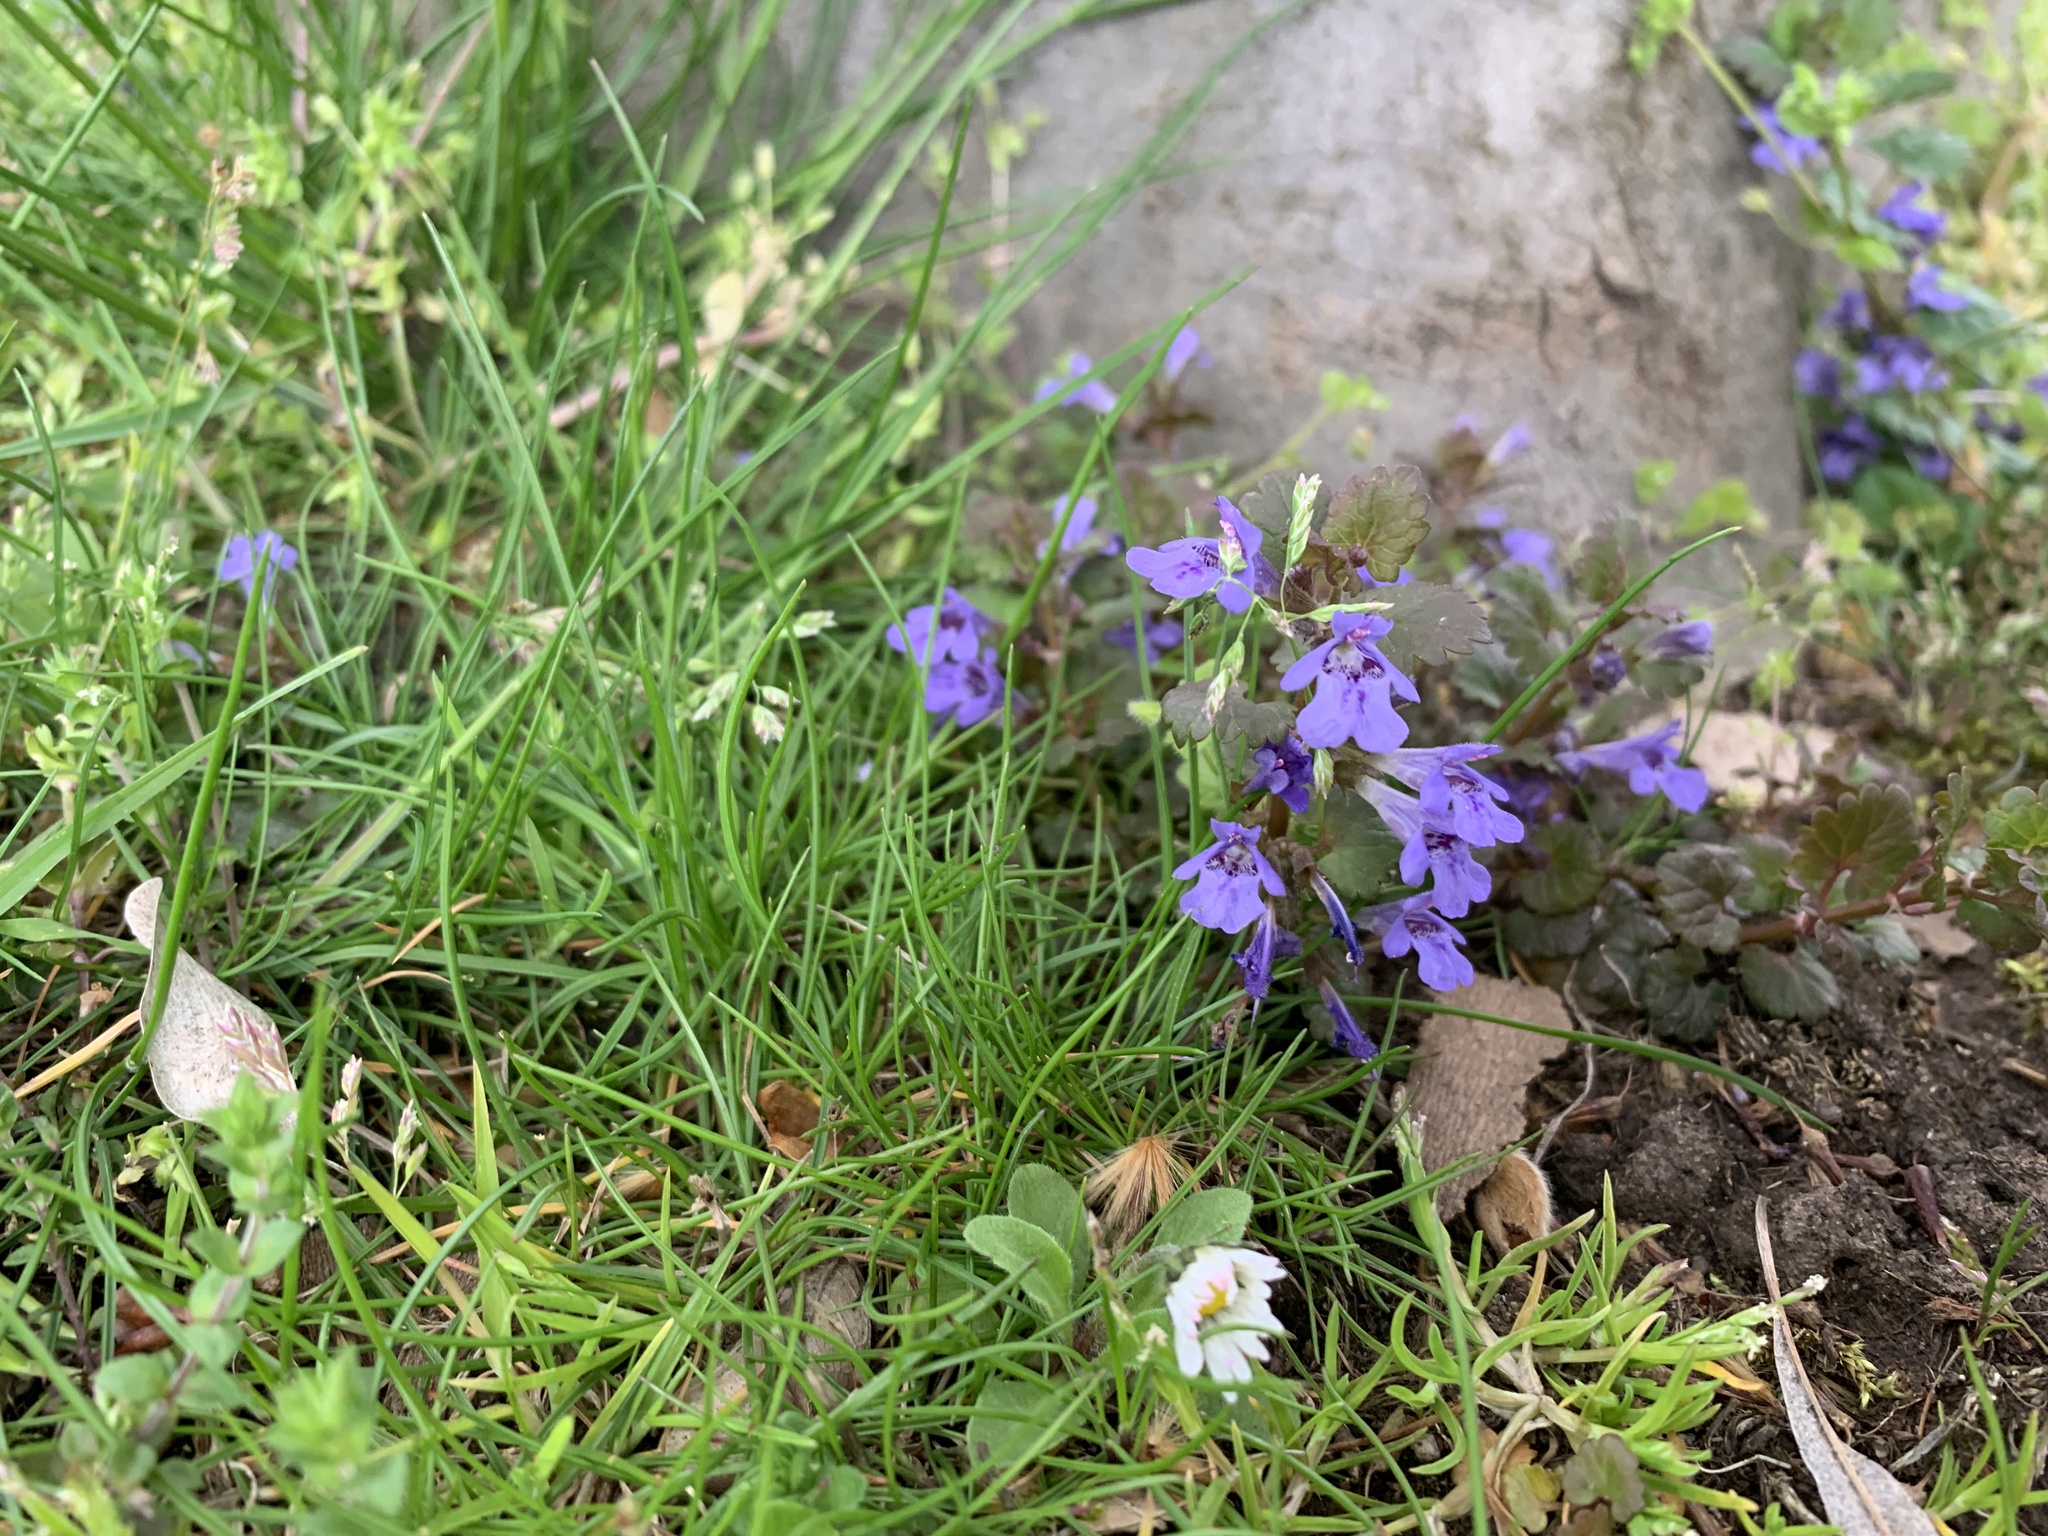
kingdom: Plantae
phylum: Tracheophyta
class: Magnoliopsida
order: Lamiales
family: Lamiaceae
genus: Glechoma
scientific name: Glechoma hederacea
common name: Ground ivy
